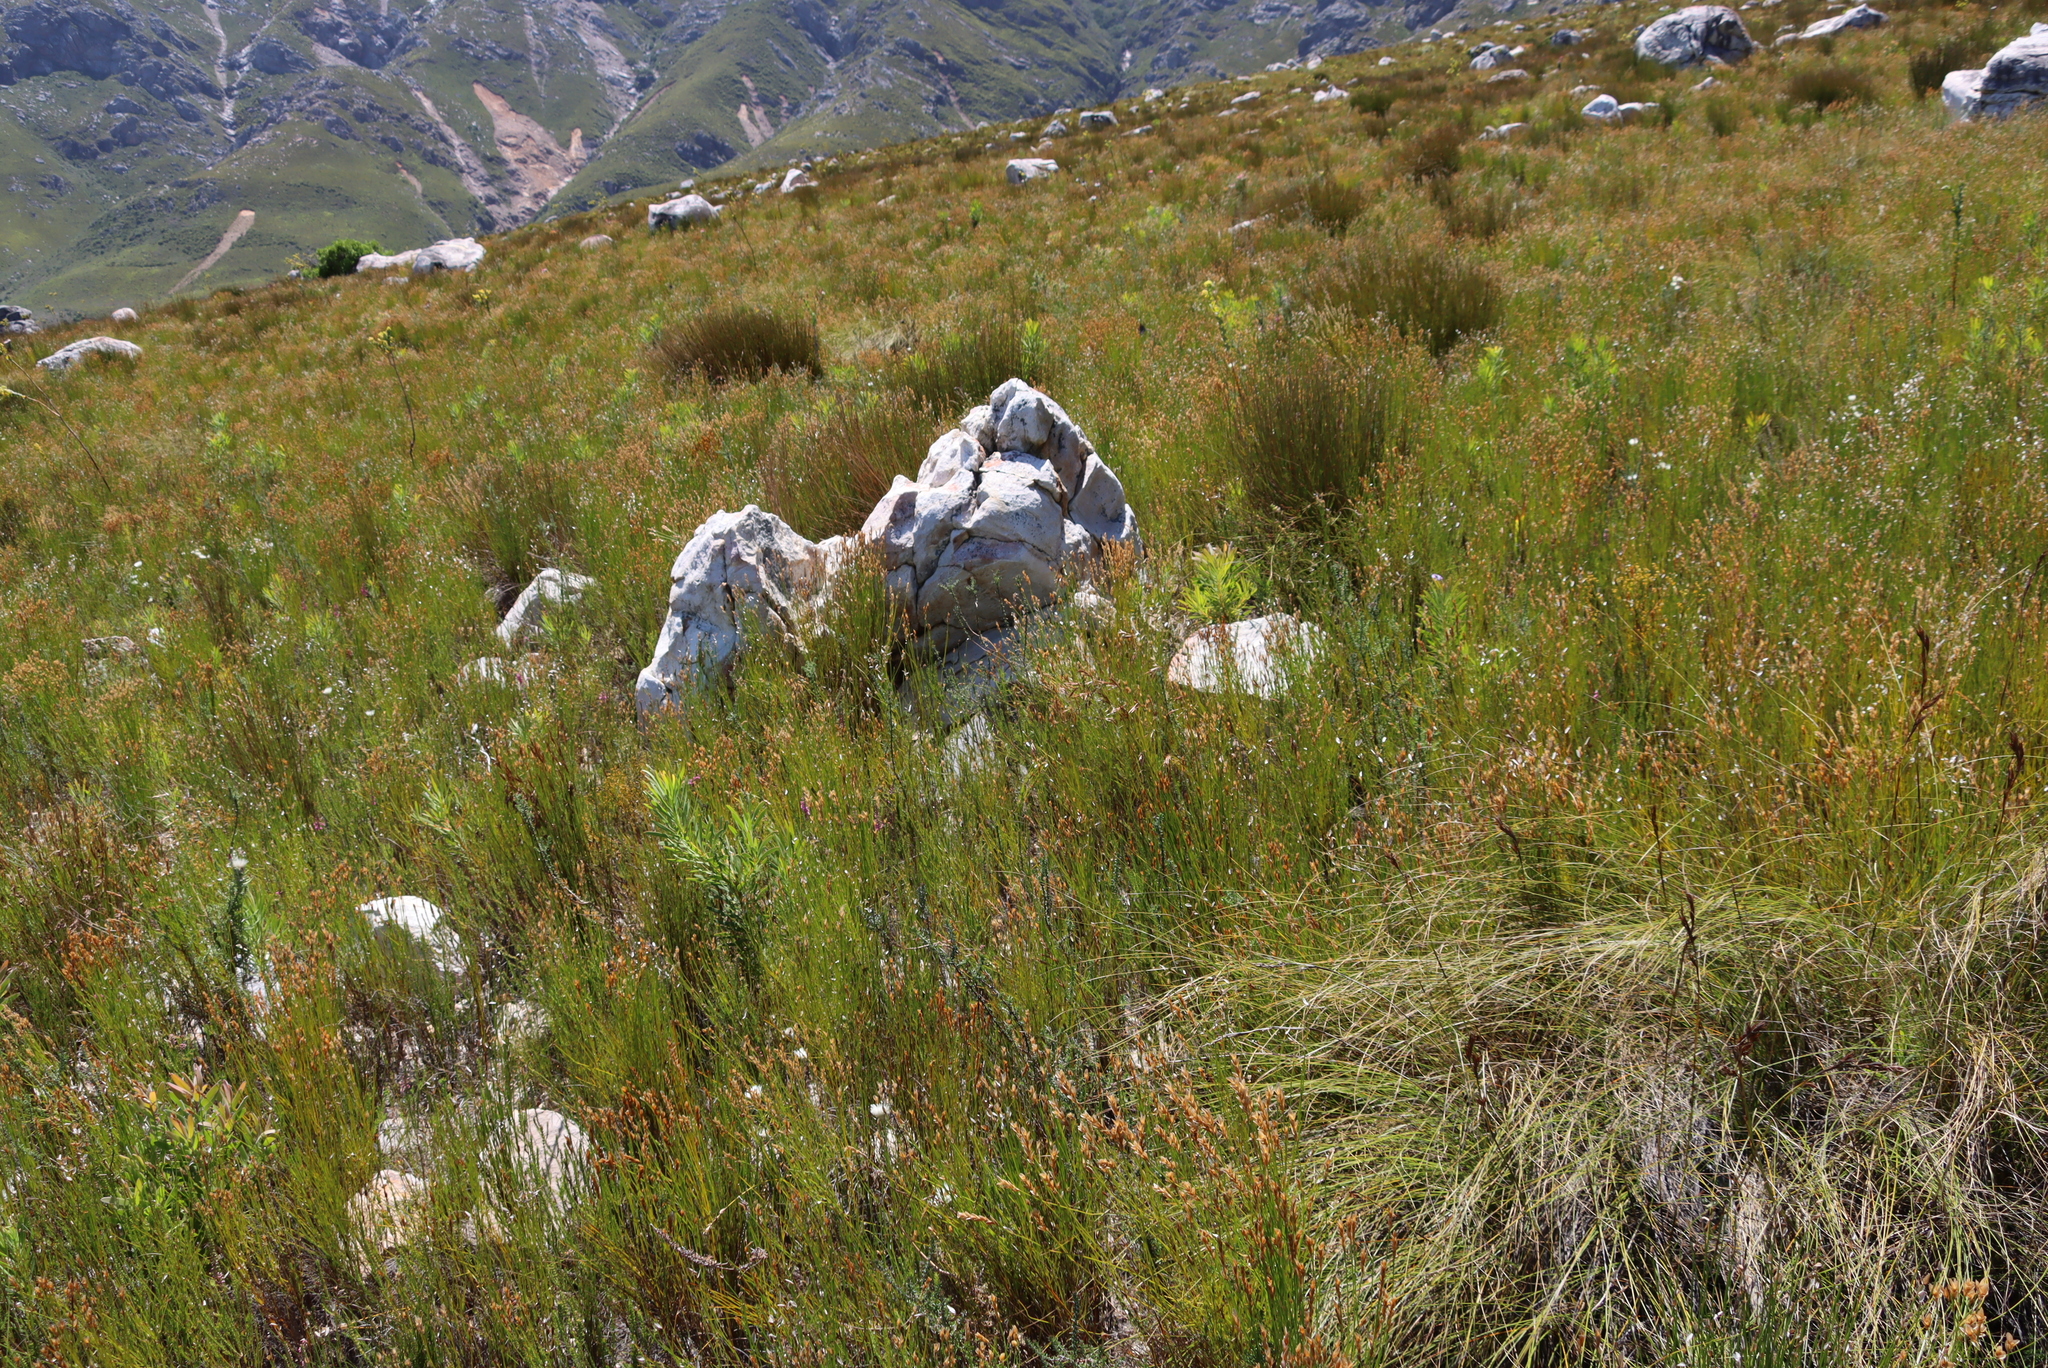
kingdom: Plantae
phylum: Tracheophyta
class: Magnoliopsida
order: Proteales
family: Proteaceae
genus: Protea
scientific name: Protea repens
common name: Sugarbush
